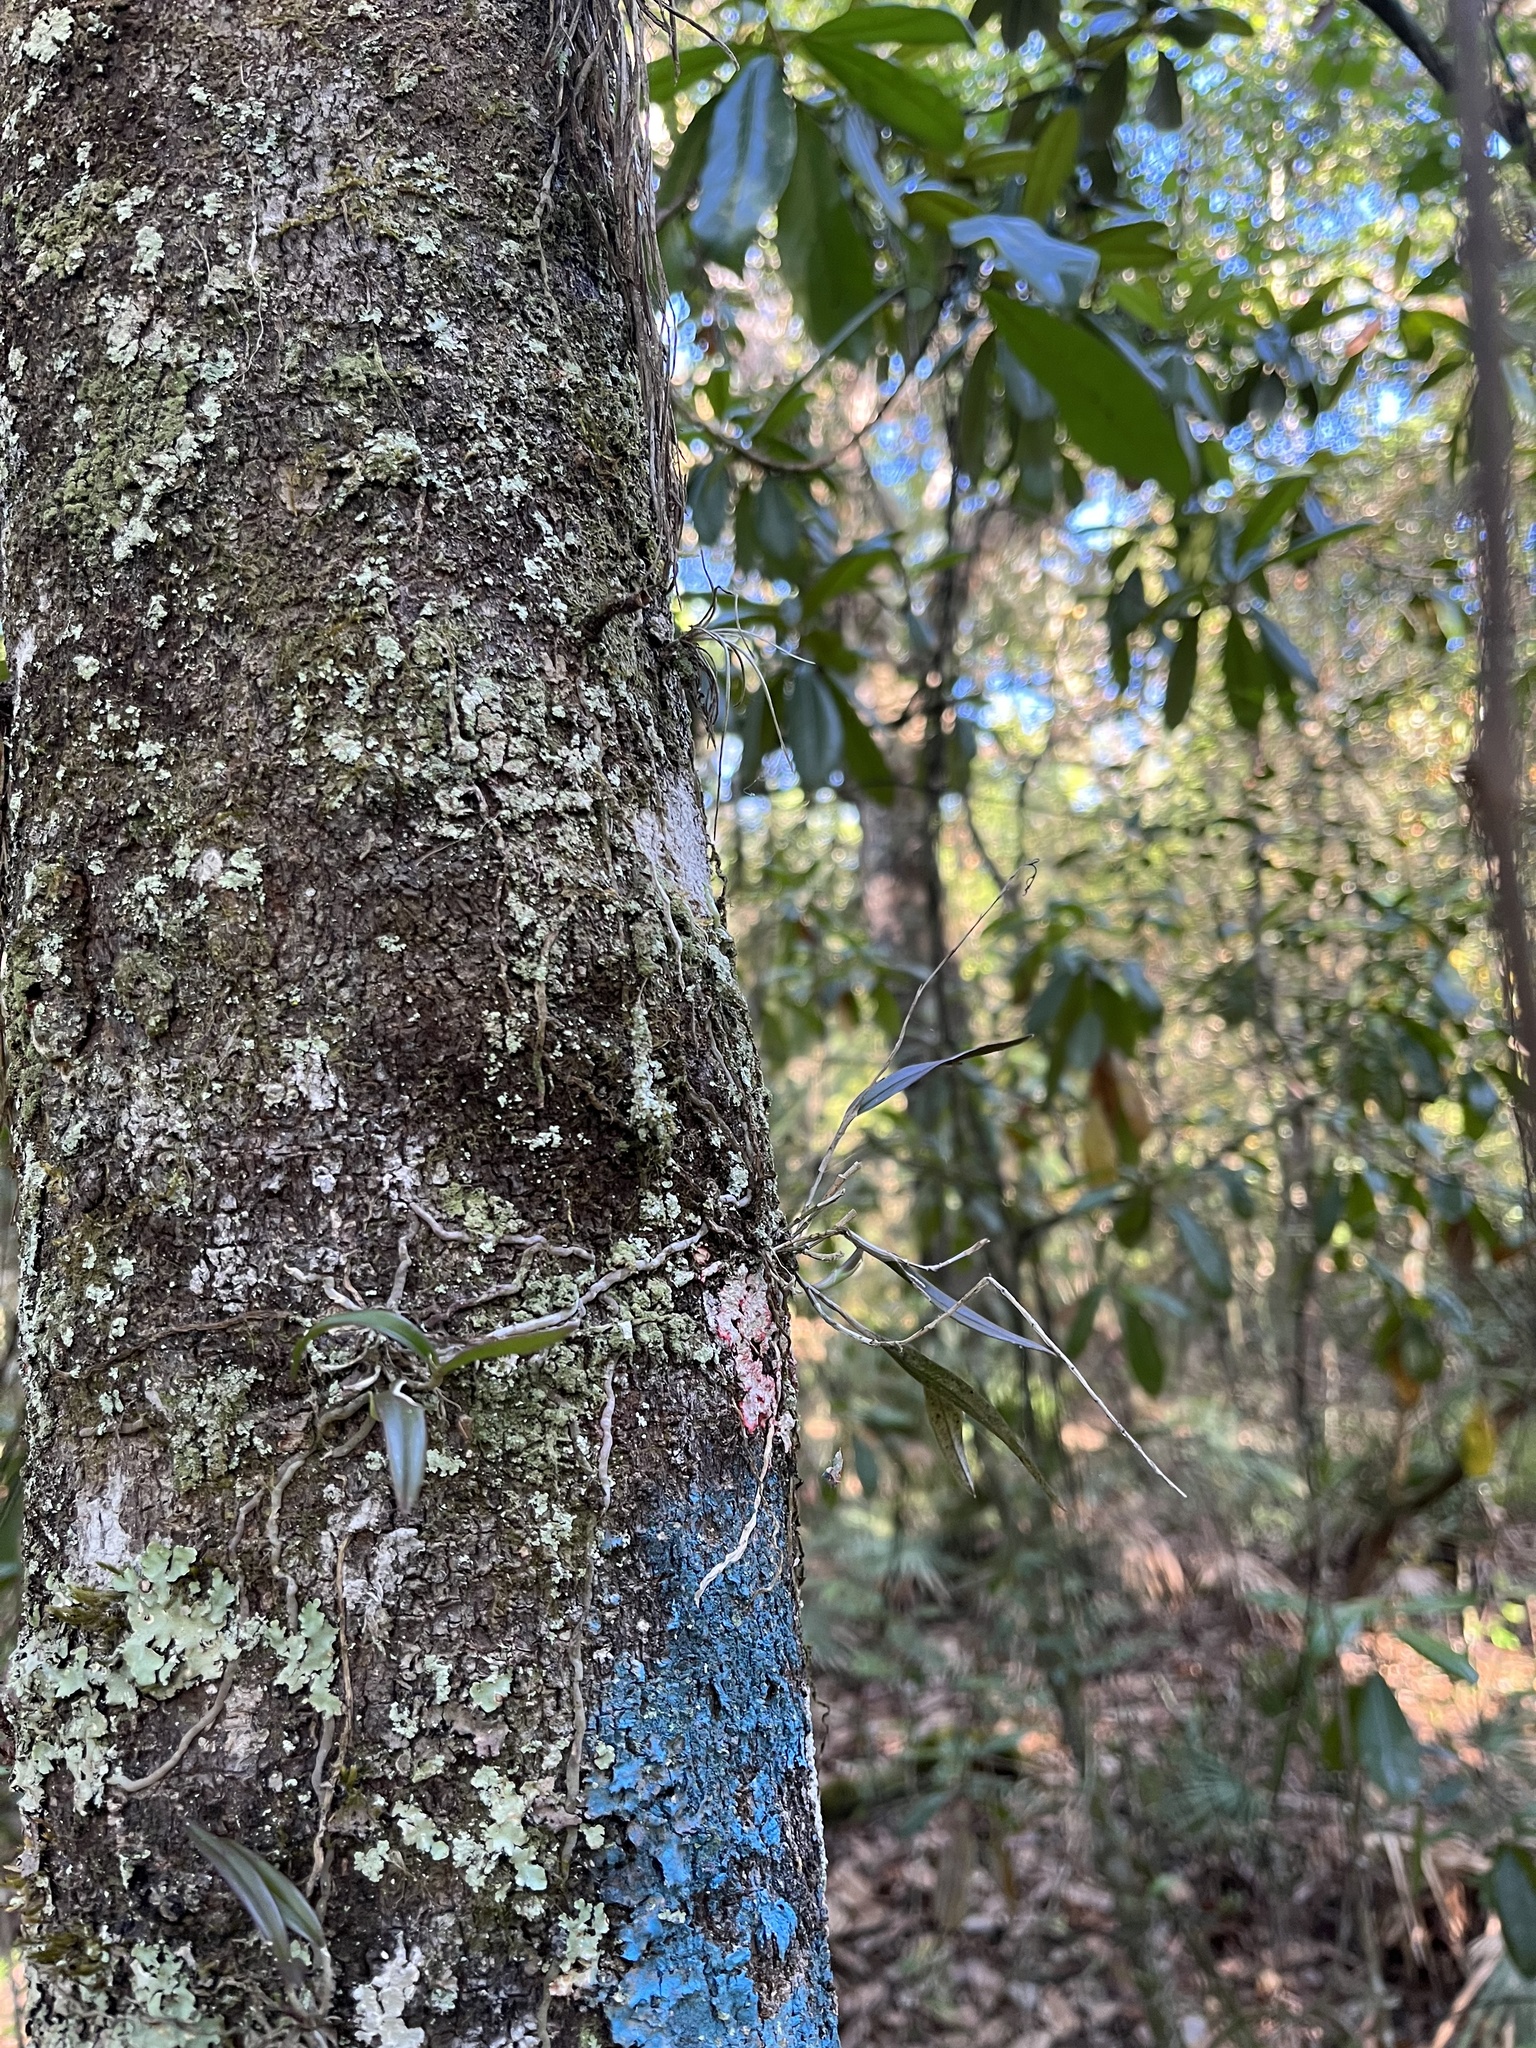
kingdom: Plantae
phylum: Tracheophyta
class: Liliopsida
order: Asparagales
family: Orchidaceae
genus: Epidendrum
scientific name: Epidendrum conopseum
